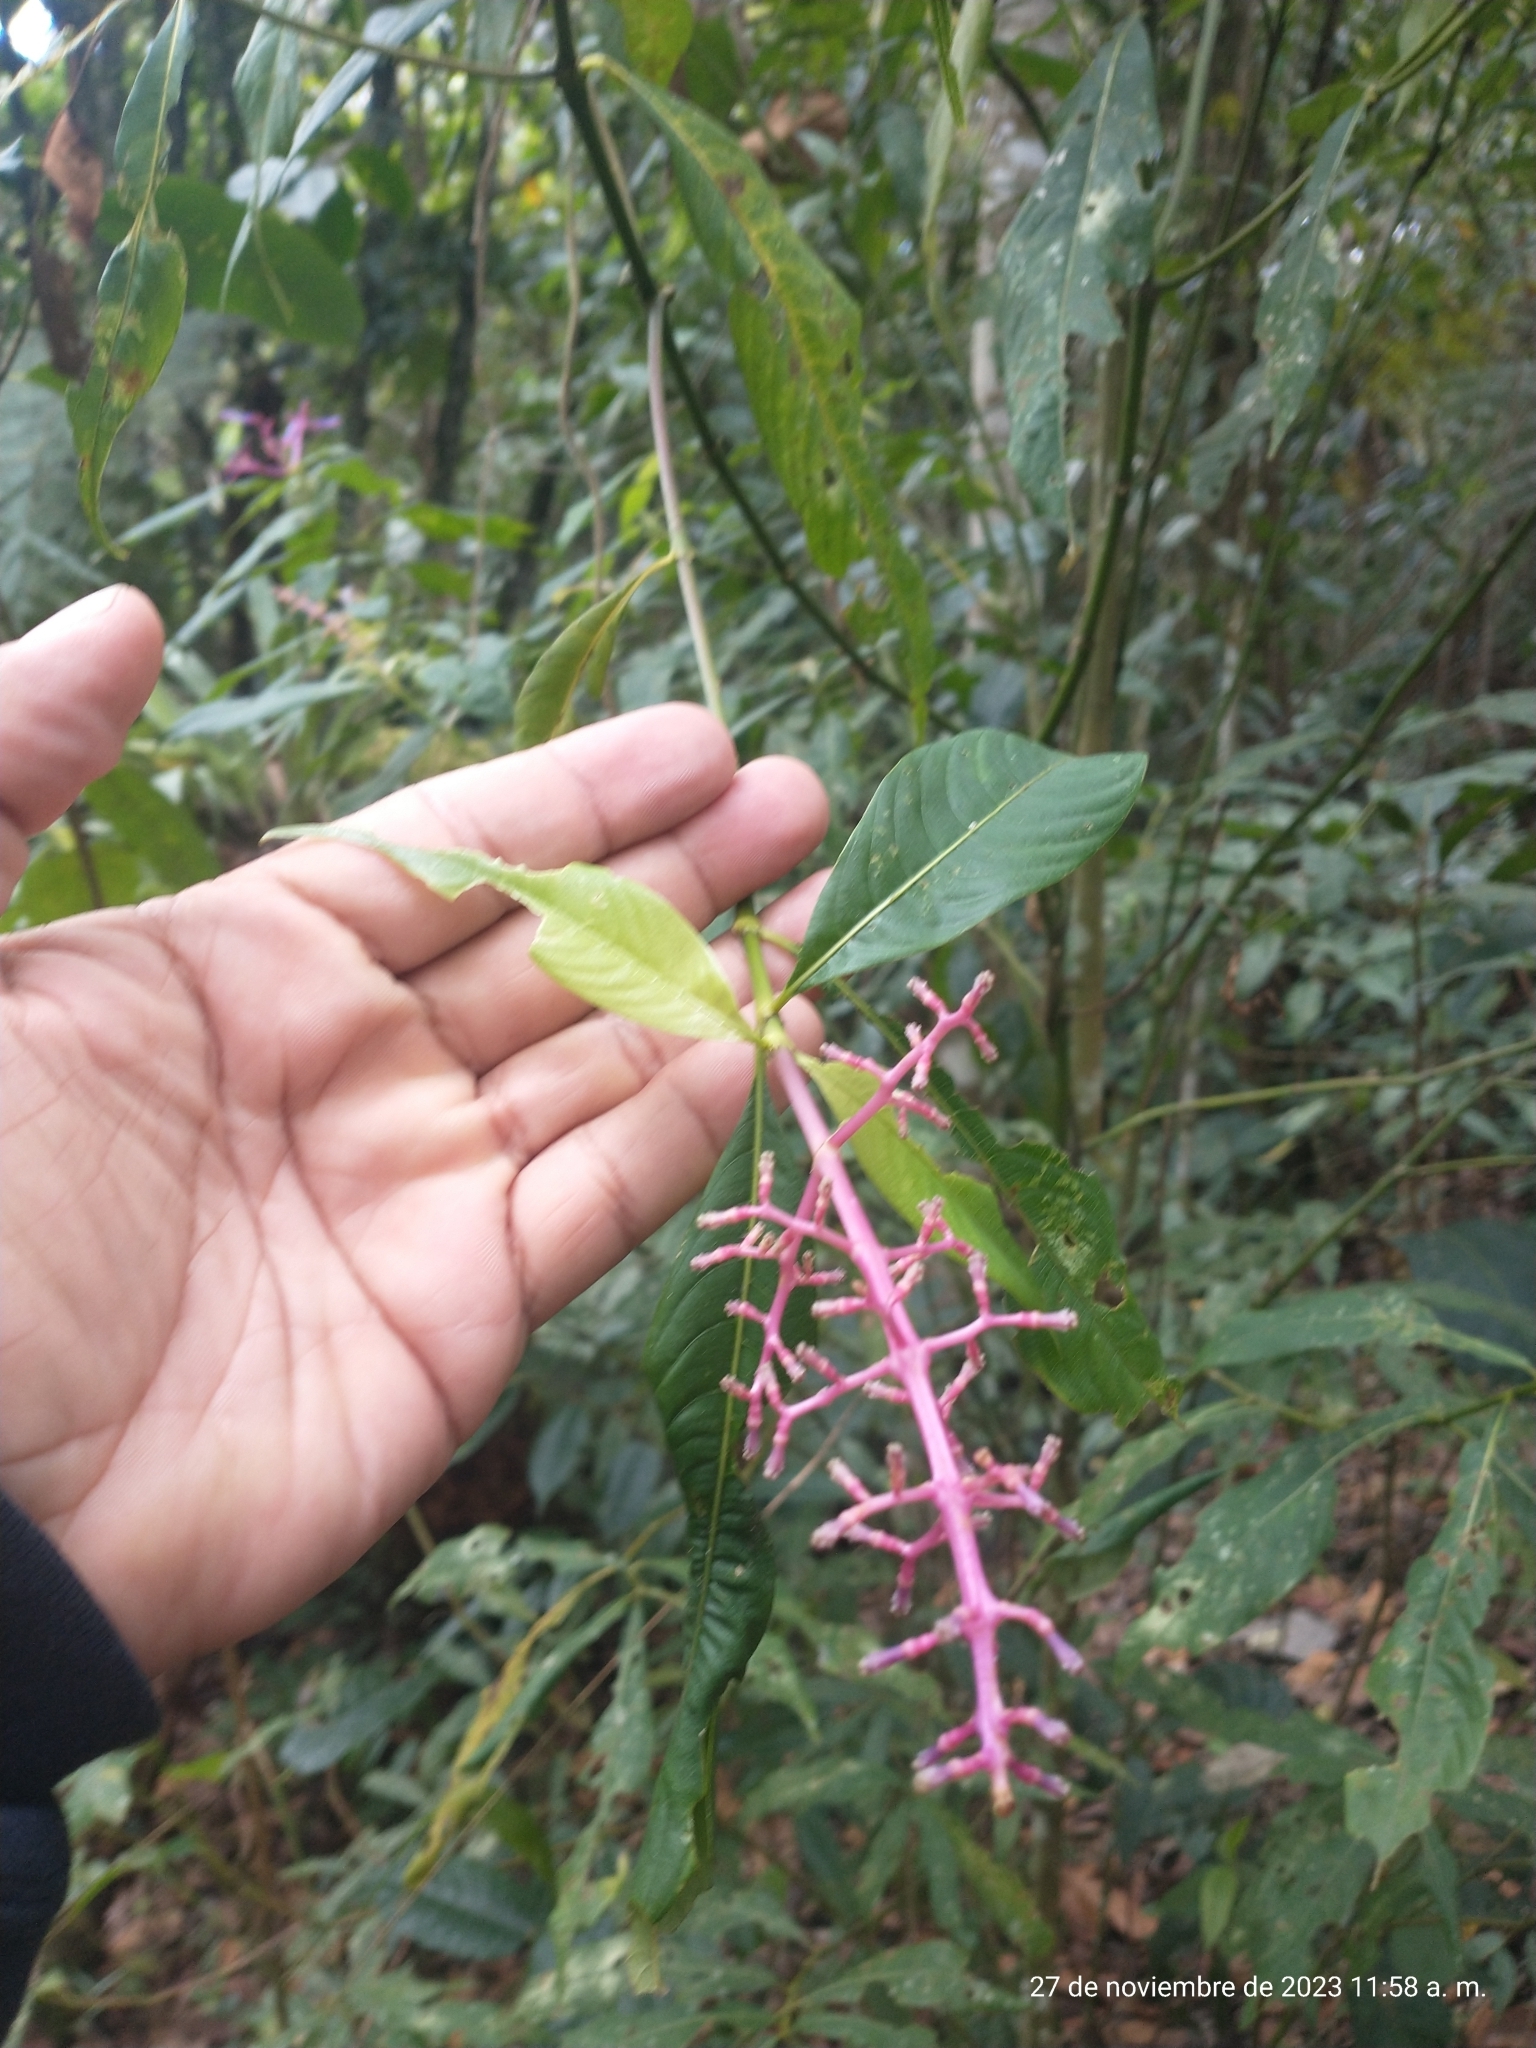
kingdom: Plantae
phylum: Tracheophyta
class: Magnoliopsida
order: Gentianales
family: Rubiaceae
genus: Palicourea
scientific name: Palicourea angustifolia
